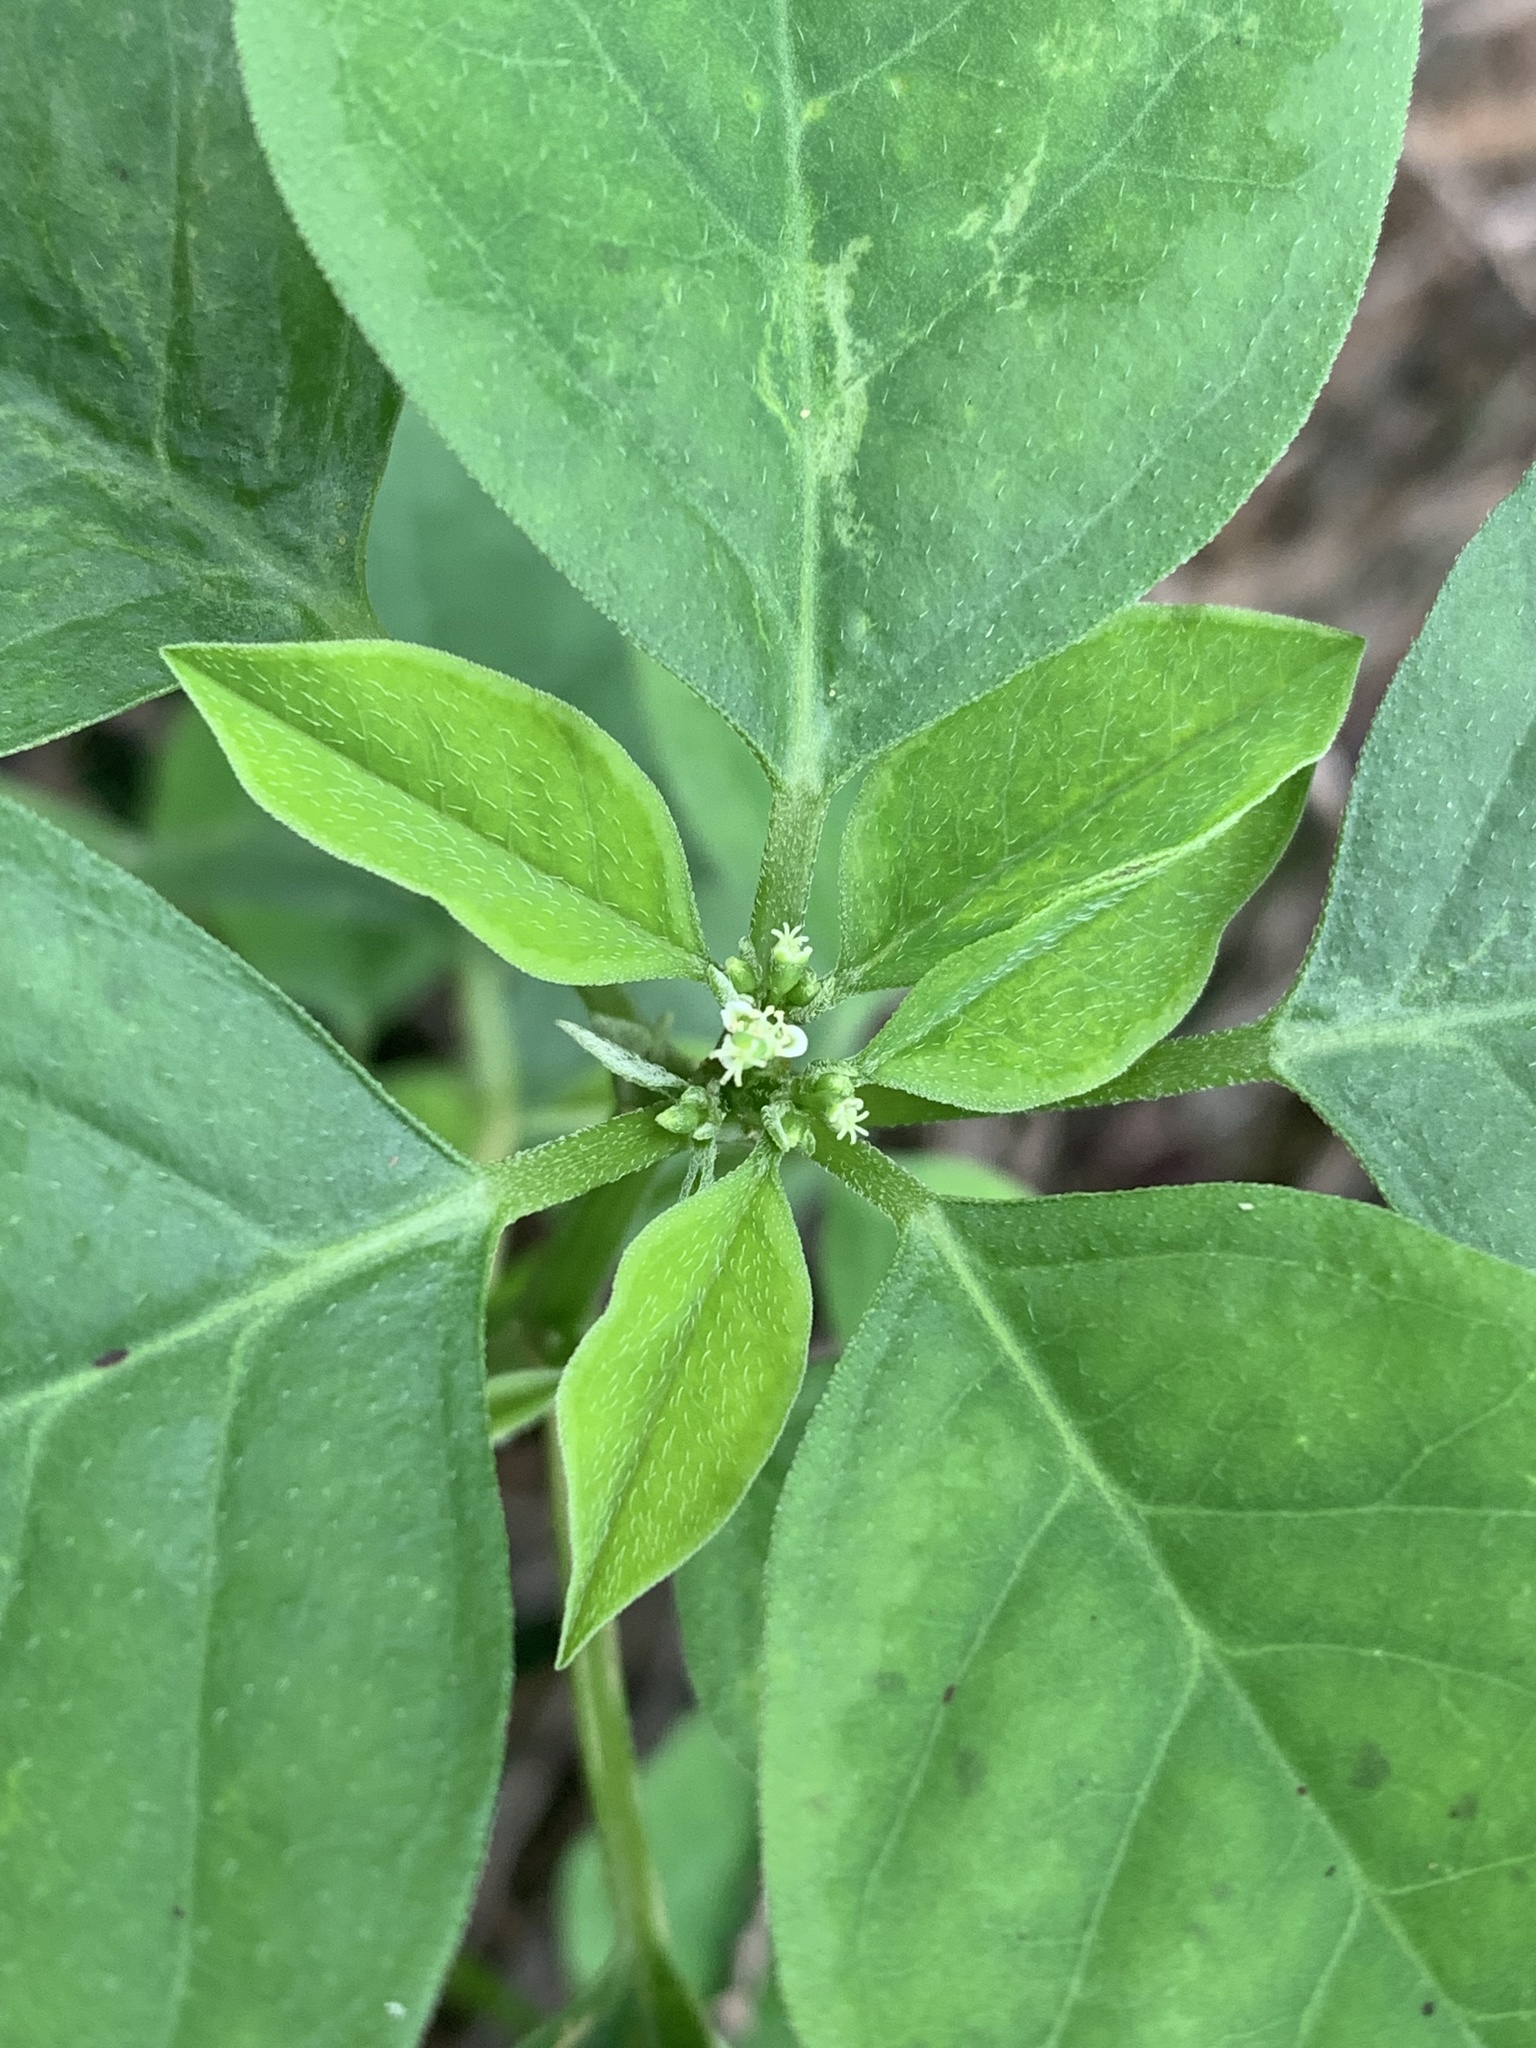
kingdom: Plantae
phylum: Tracheophyta
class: Magnoliopsida
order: Malpighiales
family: Euphorbiaceae
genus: Euphorbia
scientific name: Euphorbia graminea
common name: Grassleaf spurge
